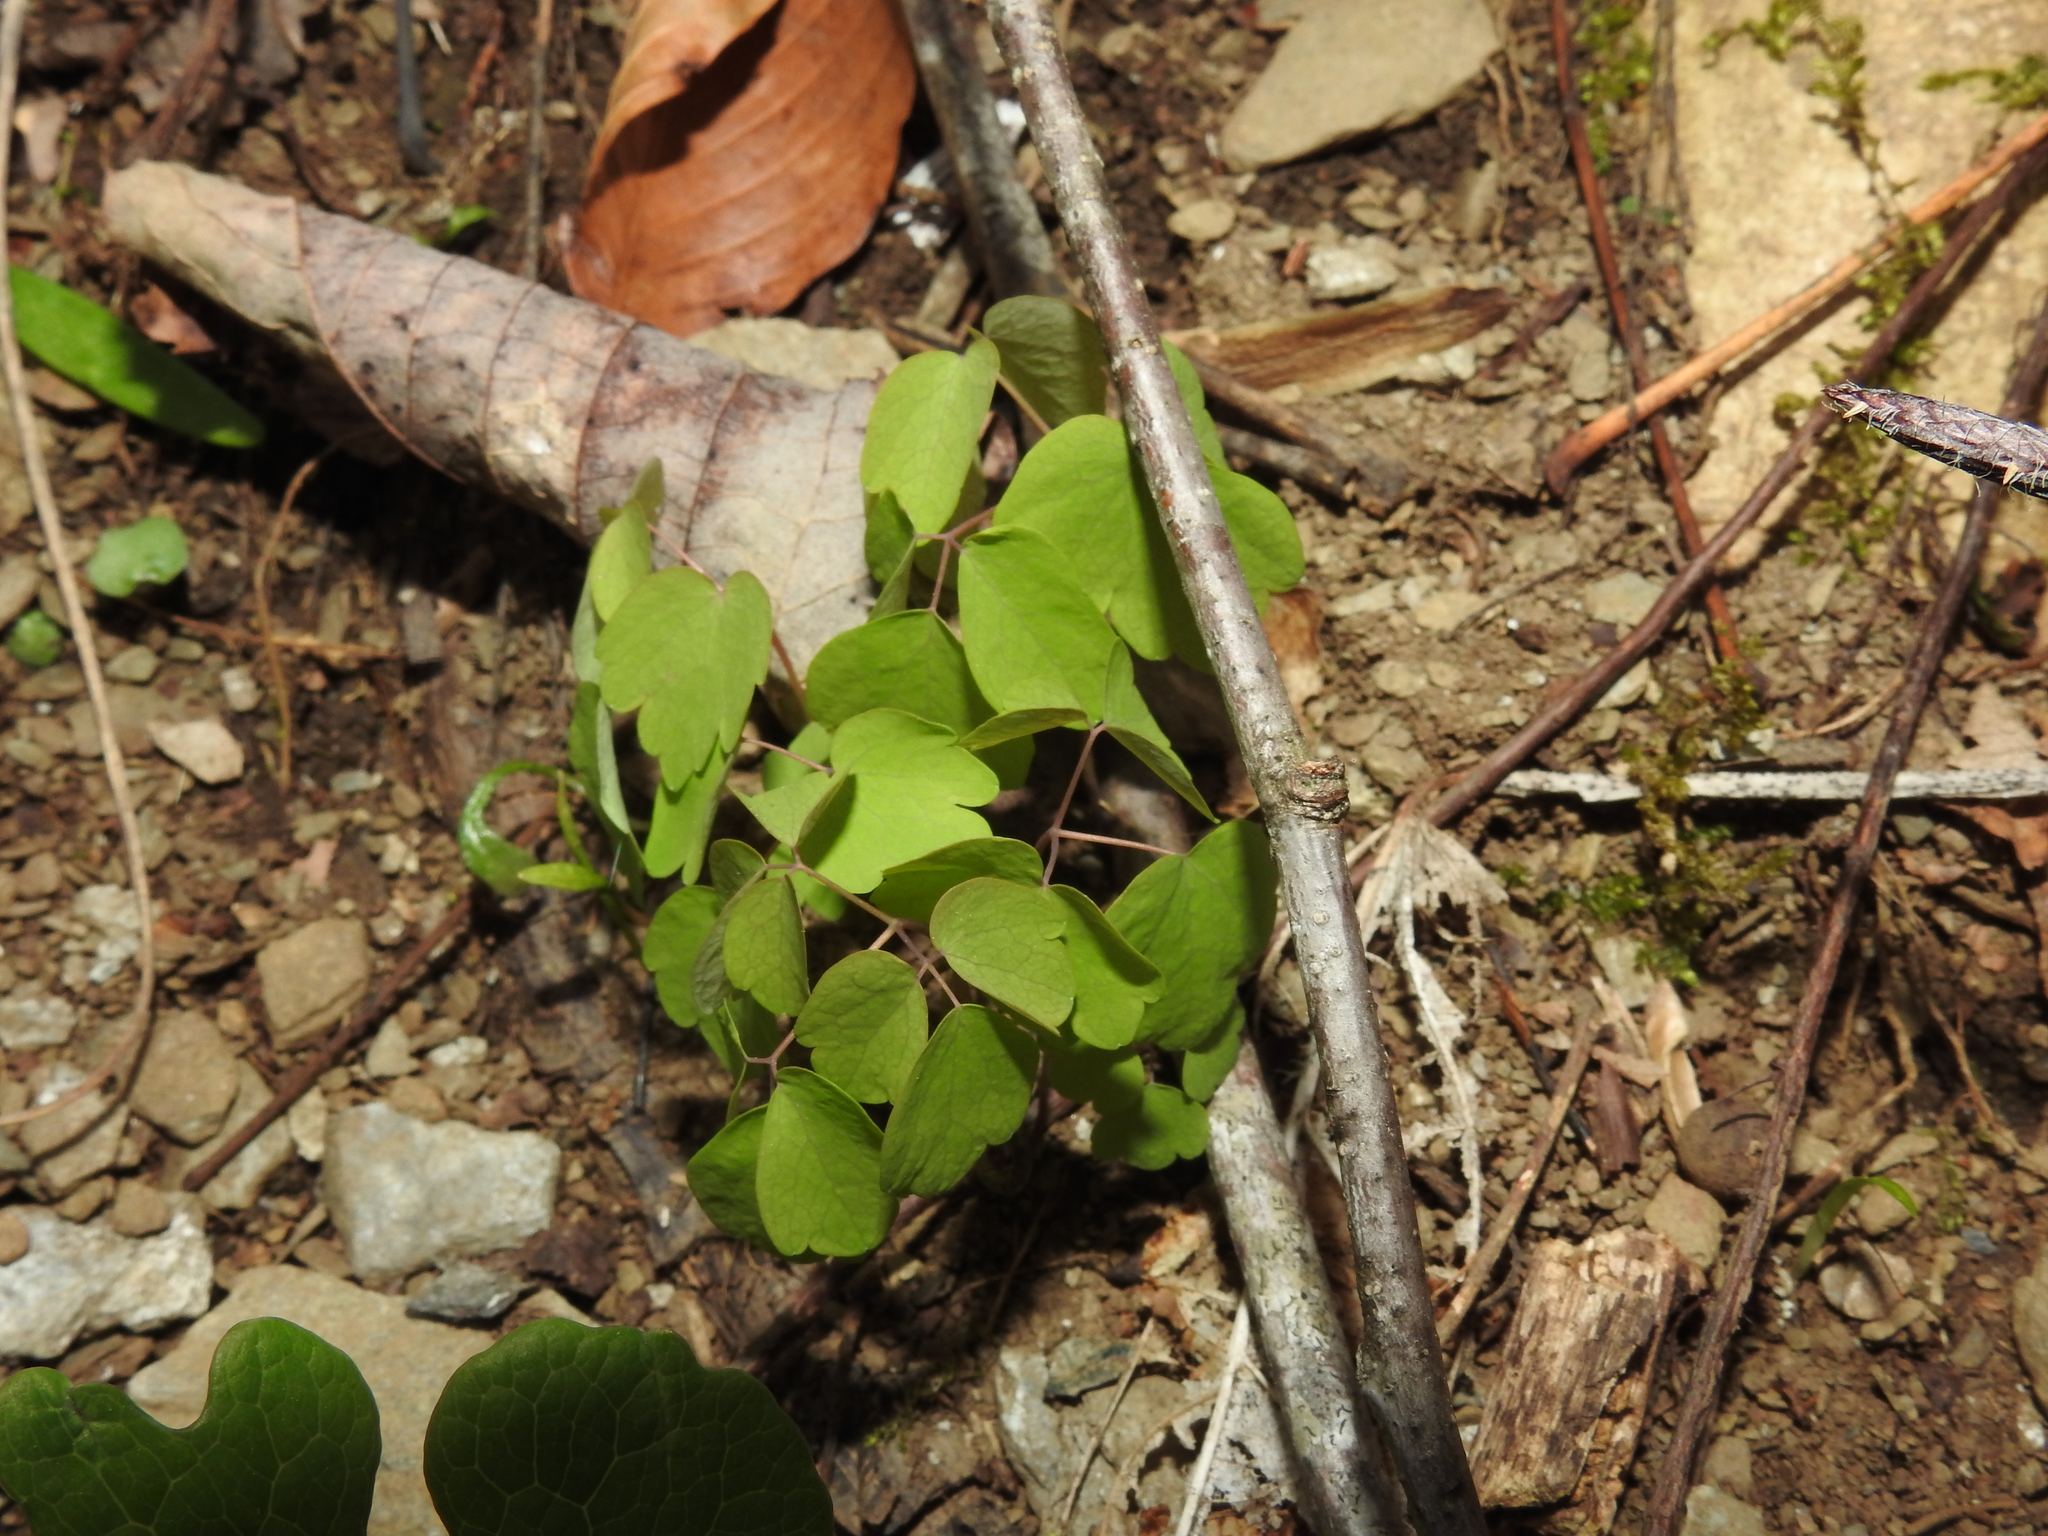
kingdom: Plantae
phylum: Tracheophyta
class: Magnoliopsida
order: Ranunculales
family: Ranunculaceae
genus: Thalictrum
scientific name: Thalictrum thalictroides
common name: Rue-anemone
